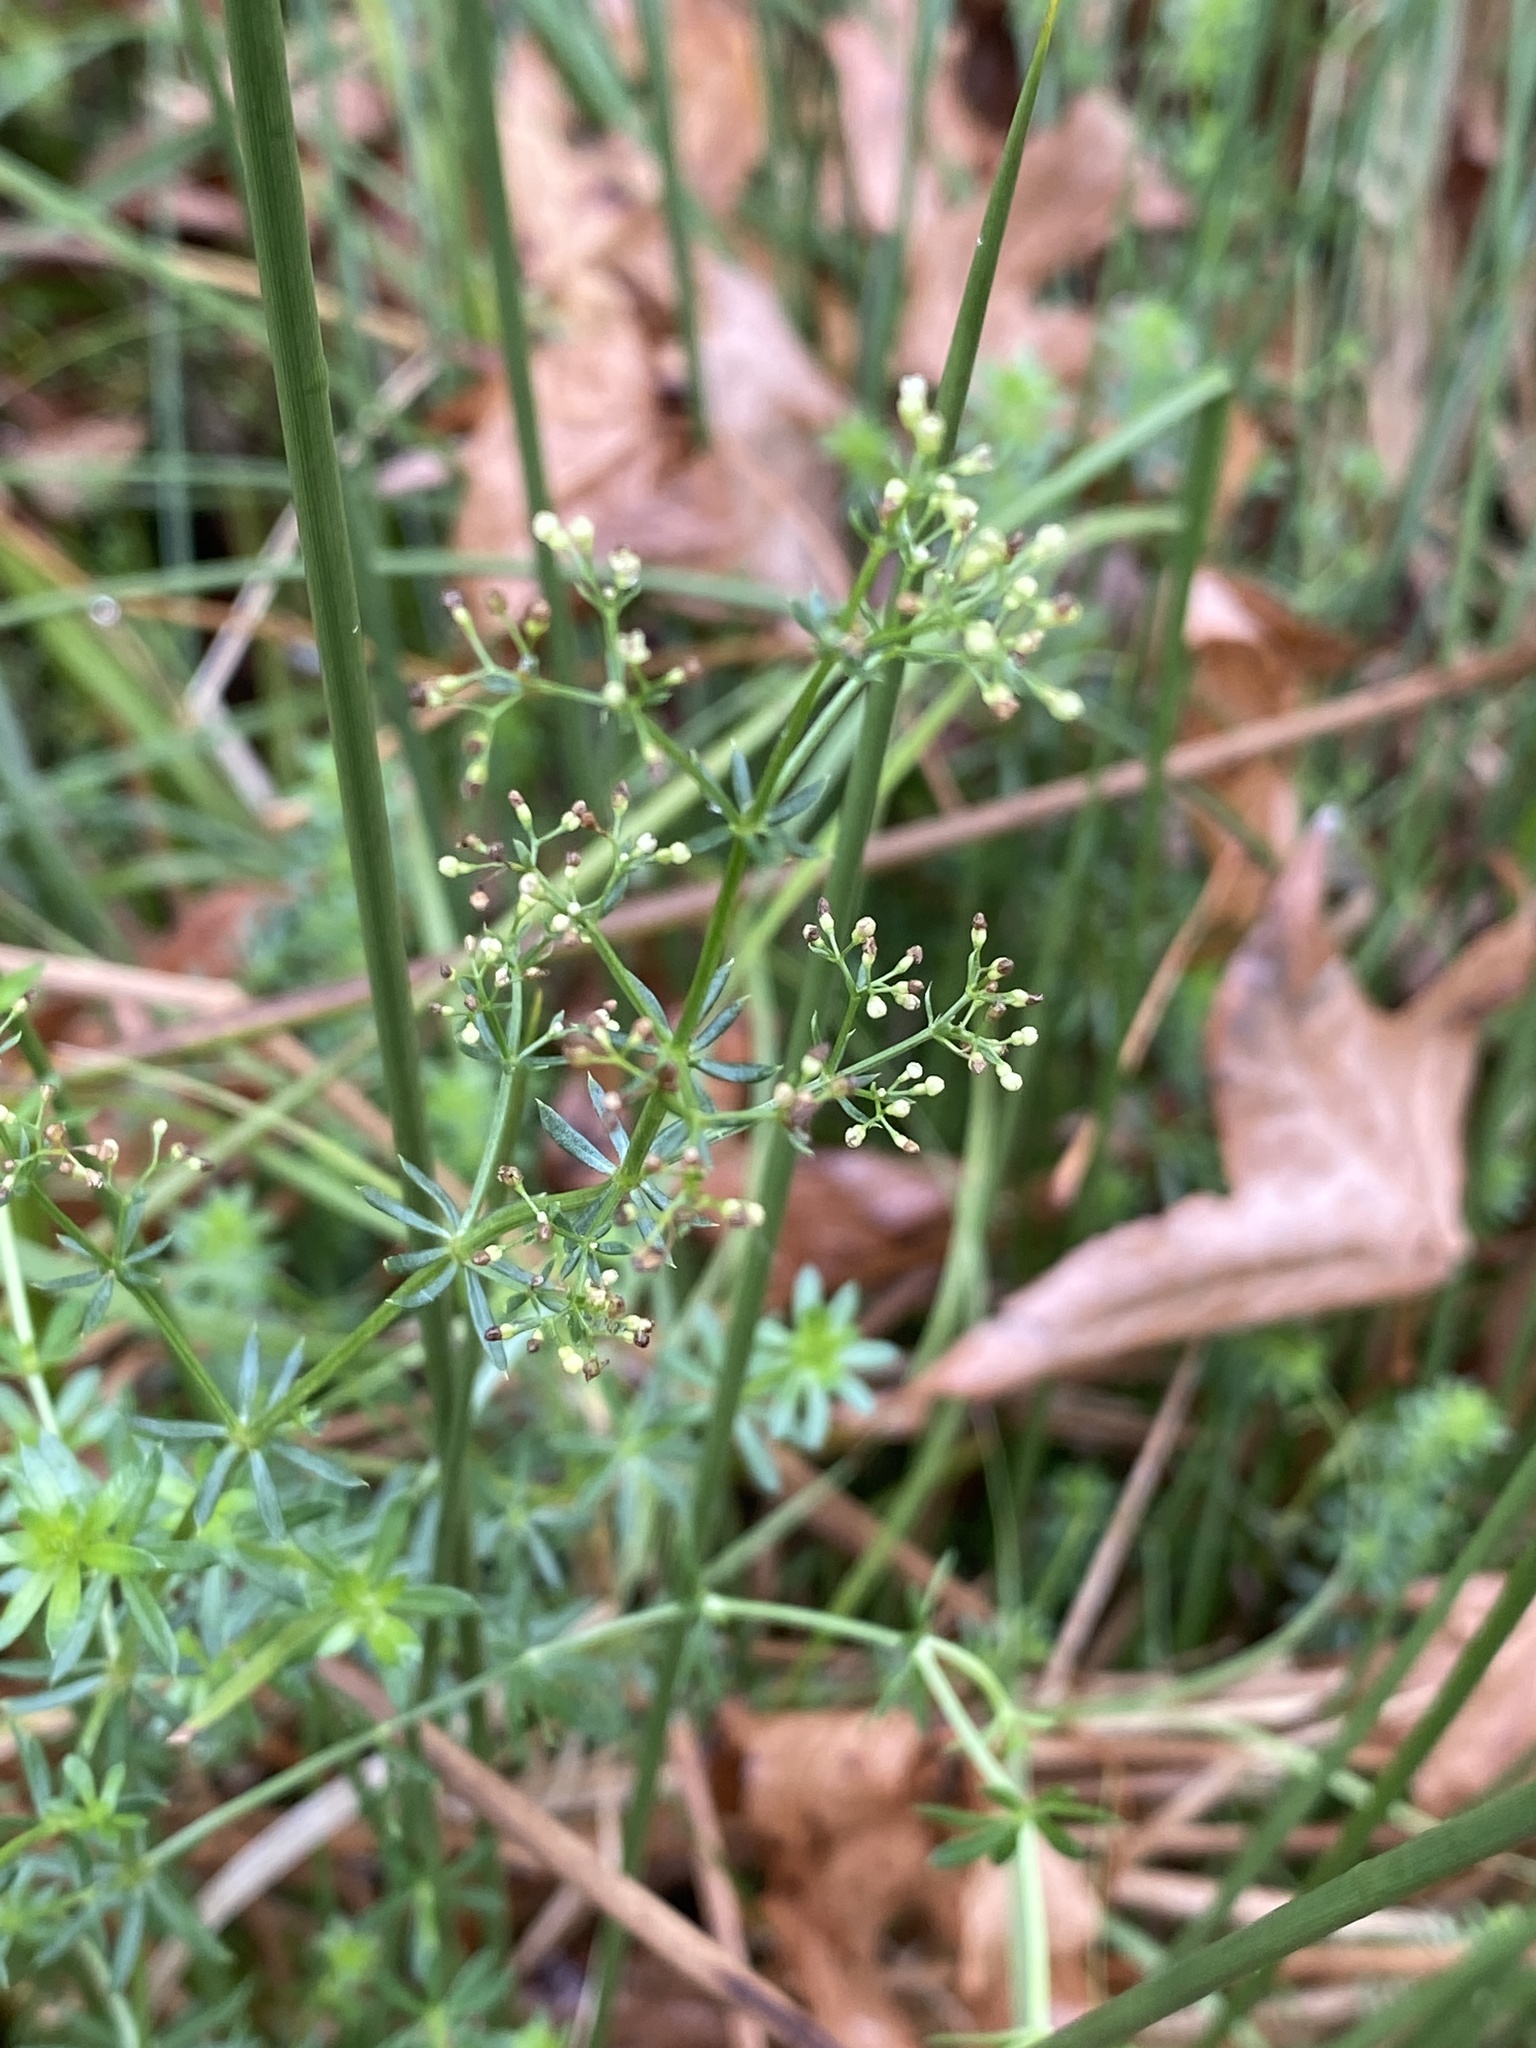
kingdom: Plantae
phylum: Tracheophyta
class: Magnoliopsida
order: Gentianales
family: Rubiaceae
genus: Galium
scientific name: Galium mollugo
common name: Hedge bedstraw
